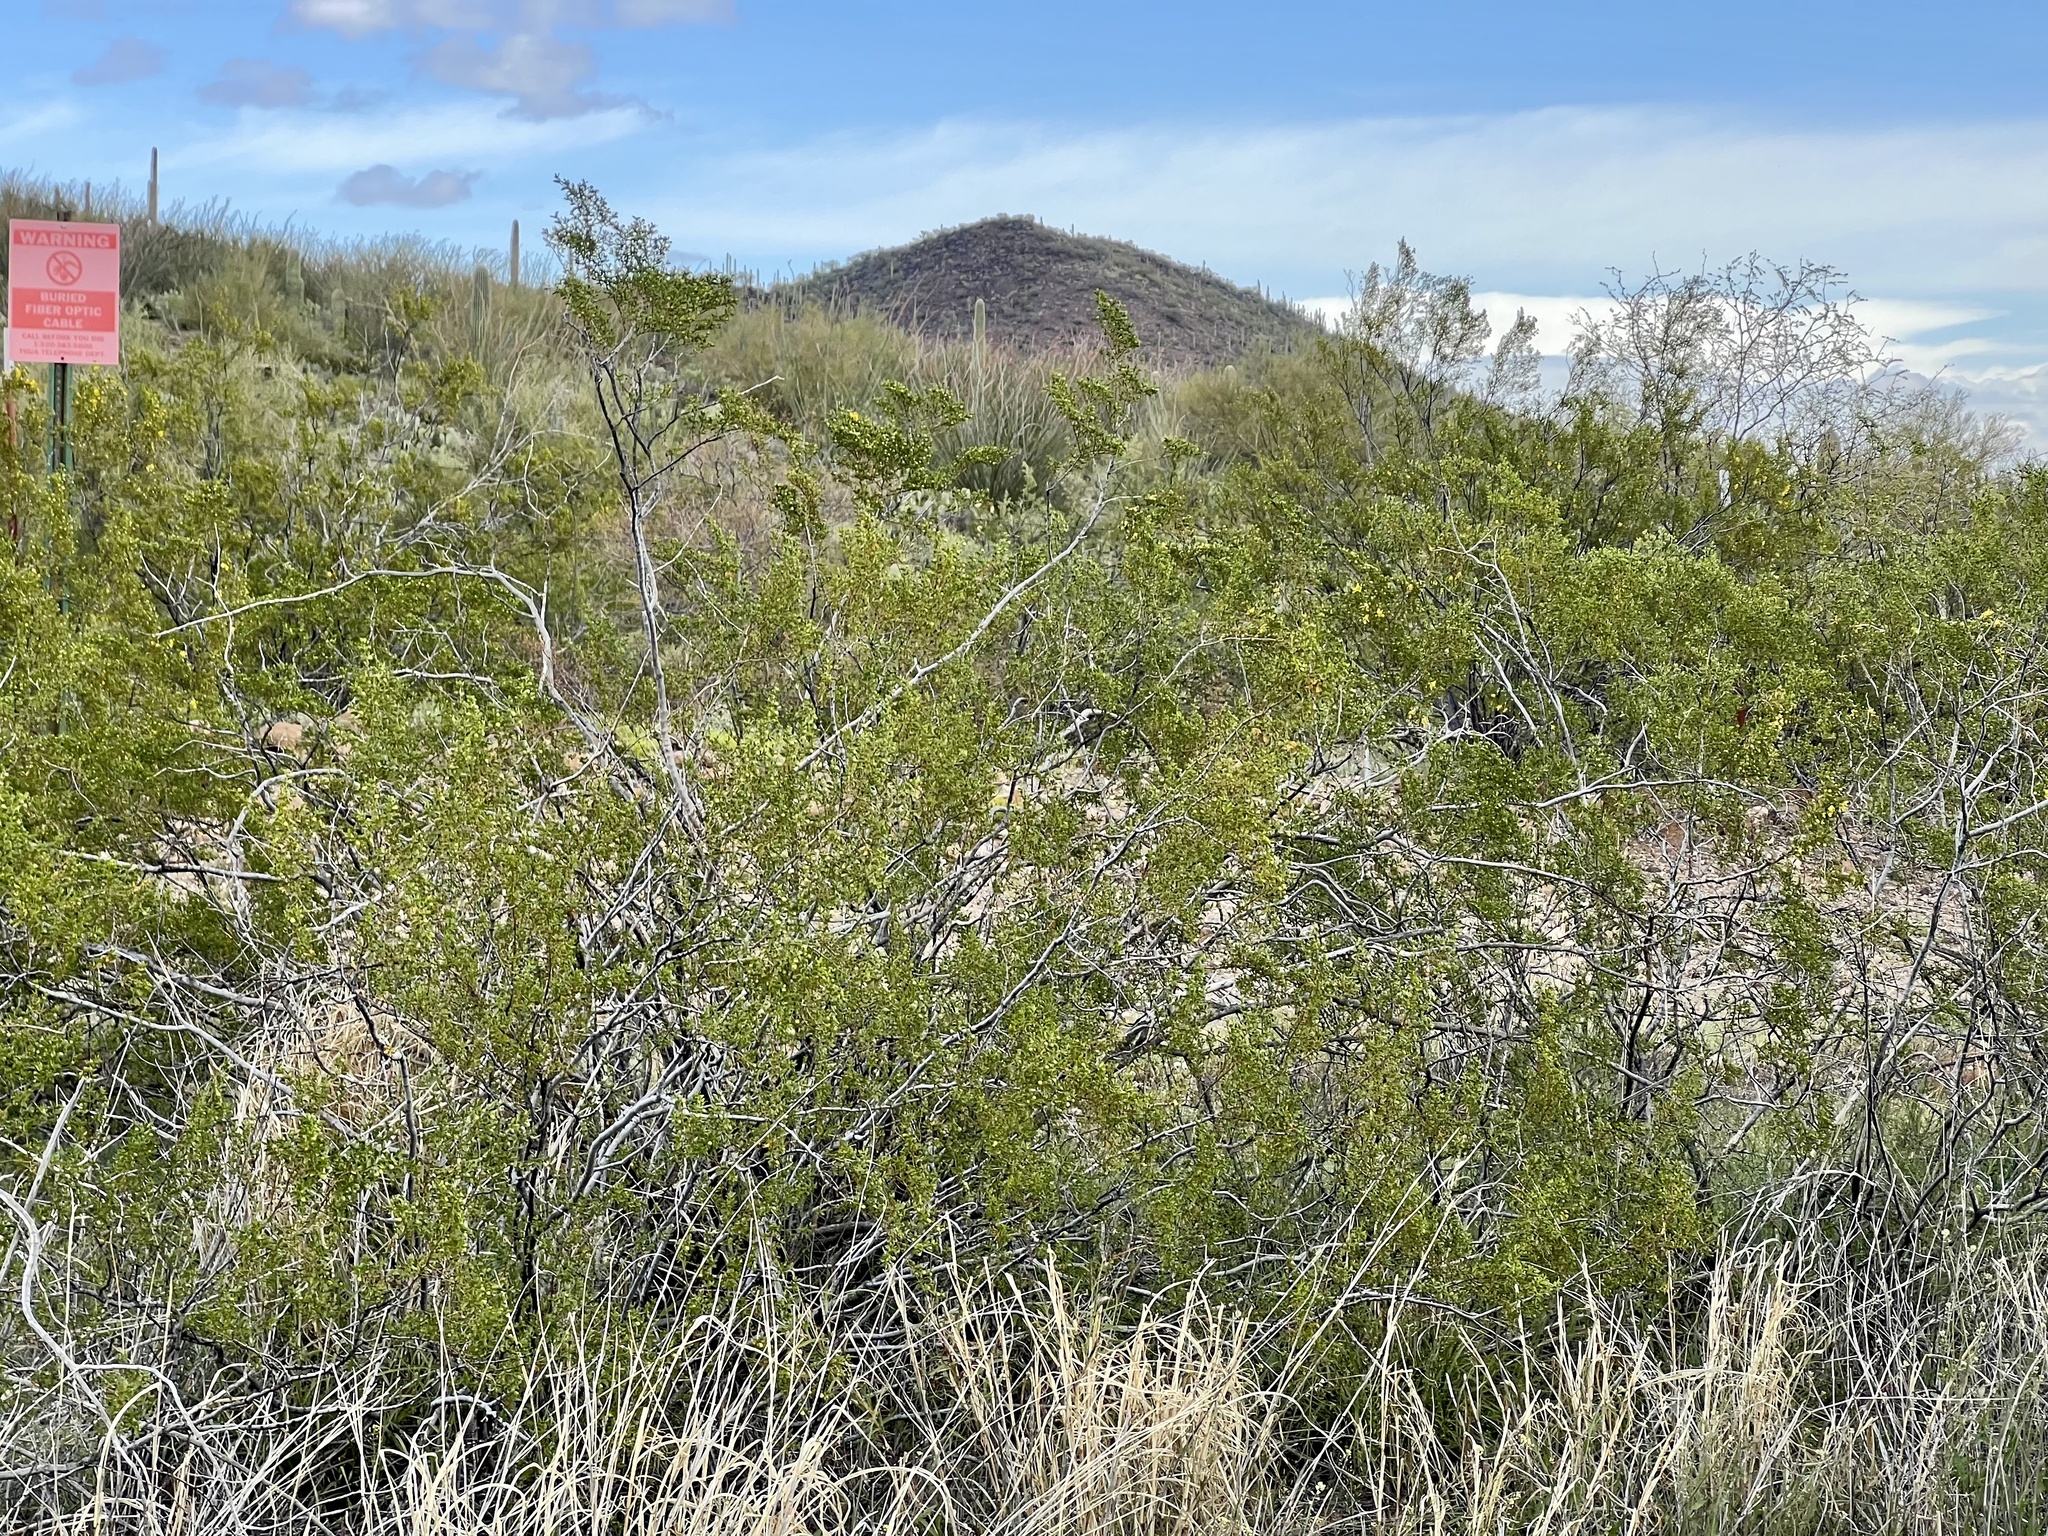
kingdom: Plantae
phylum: Tracheophyta
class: Magnoliopsida
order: Zygophyllales
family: Zygophyllaceae
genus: Larrea
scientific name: Larrea tridentata
